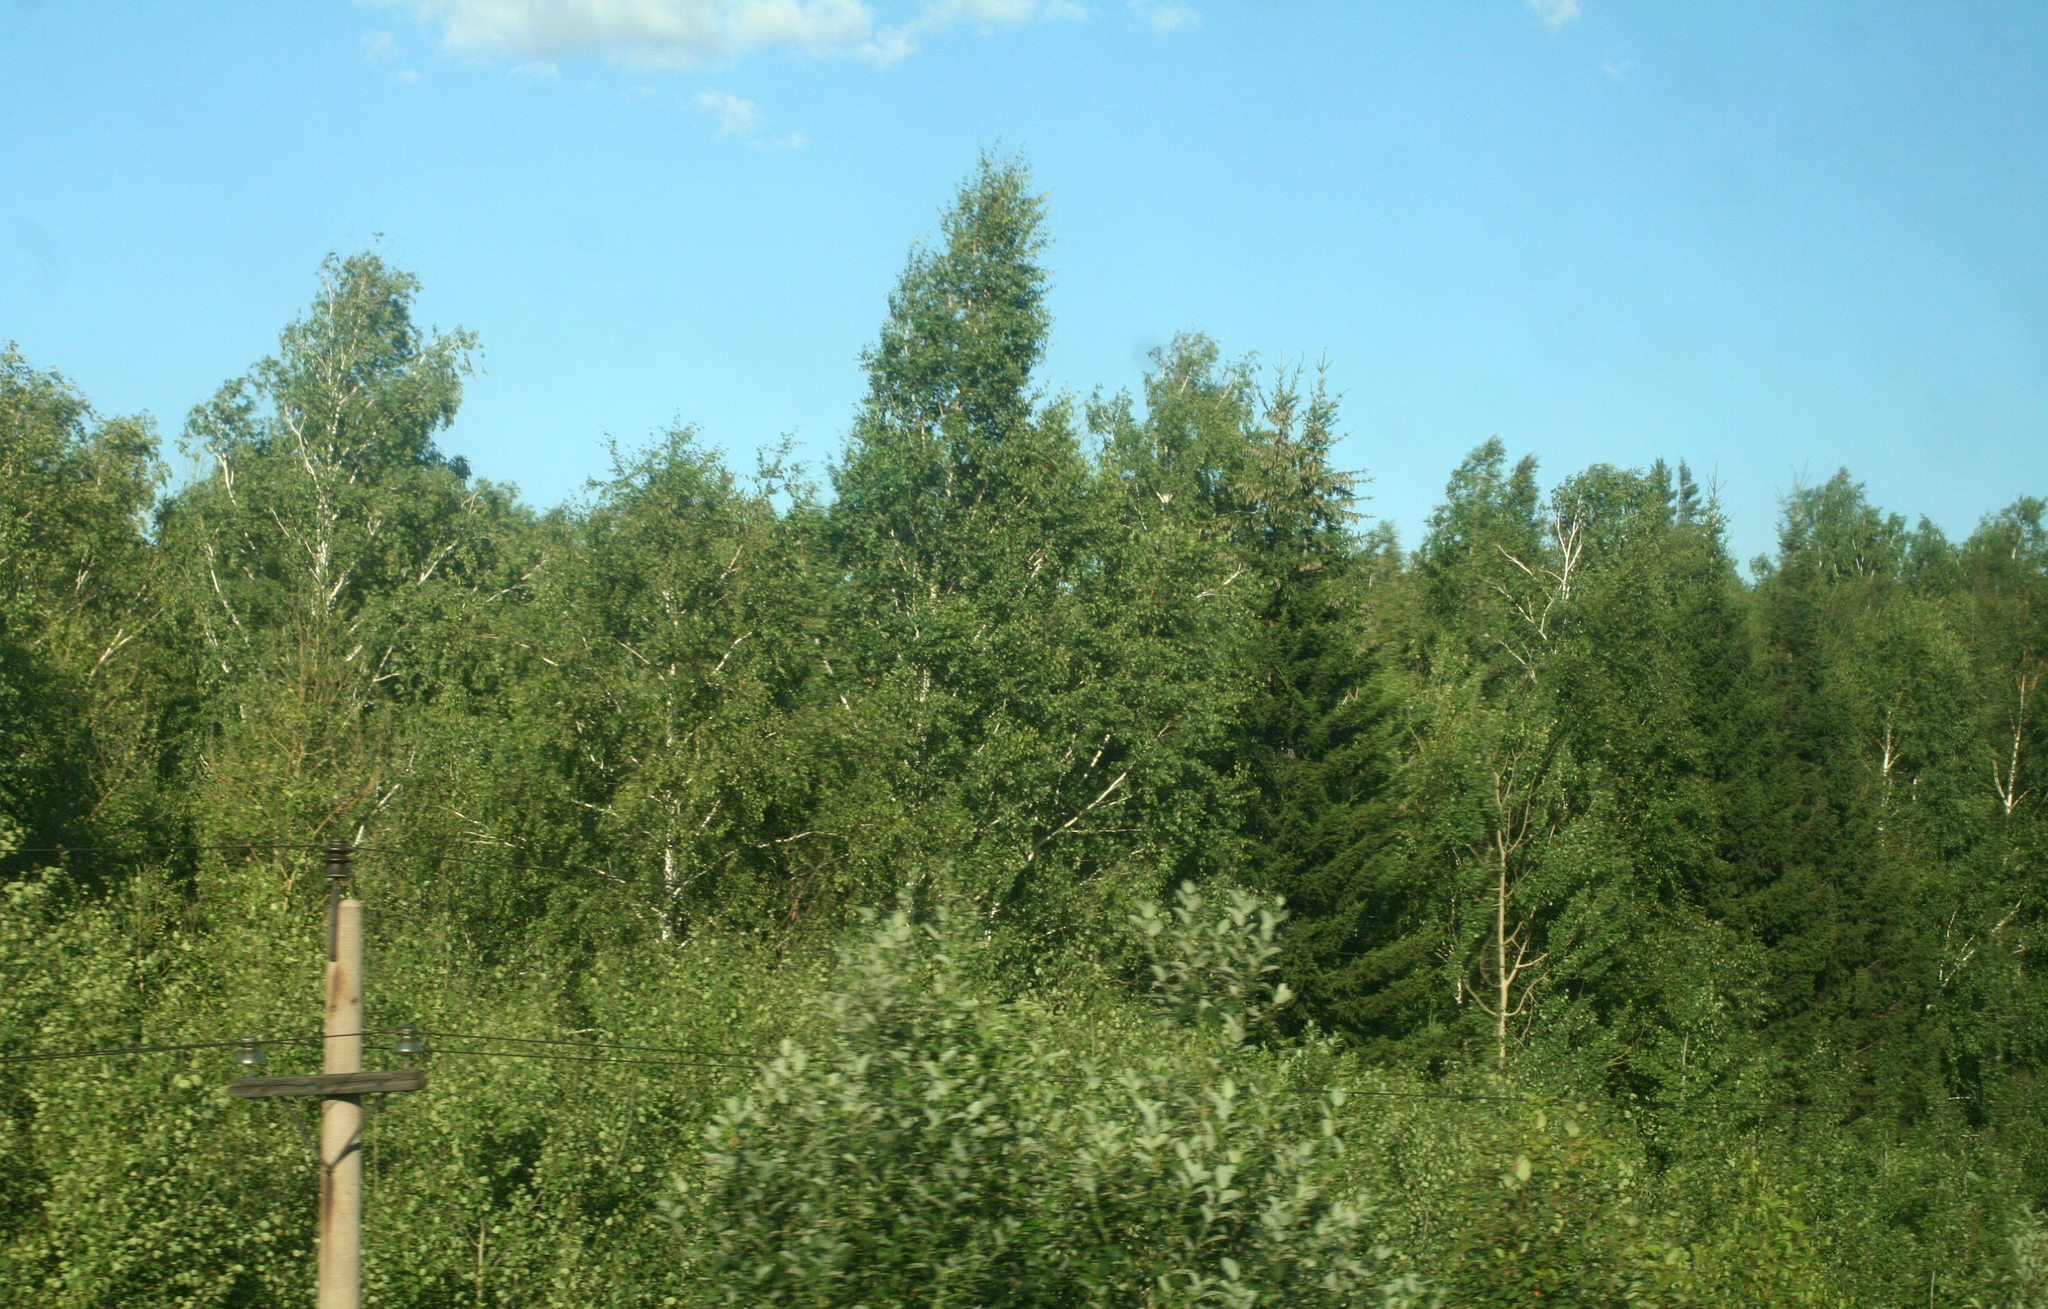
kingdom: Plantae
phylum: Tracheophyta
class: Pinopsida
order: Pinales
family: Pinaceae
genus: Picea
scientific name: Picea obovata
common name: Siberian spruce
